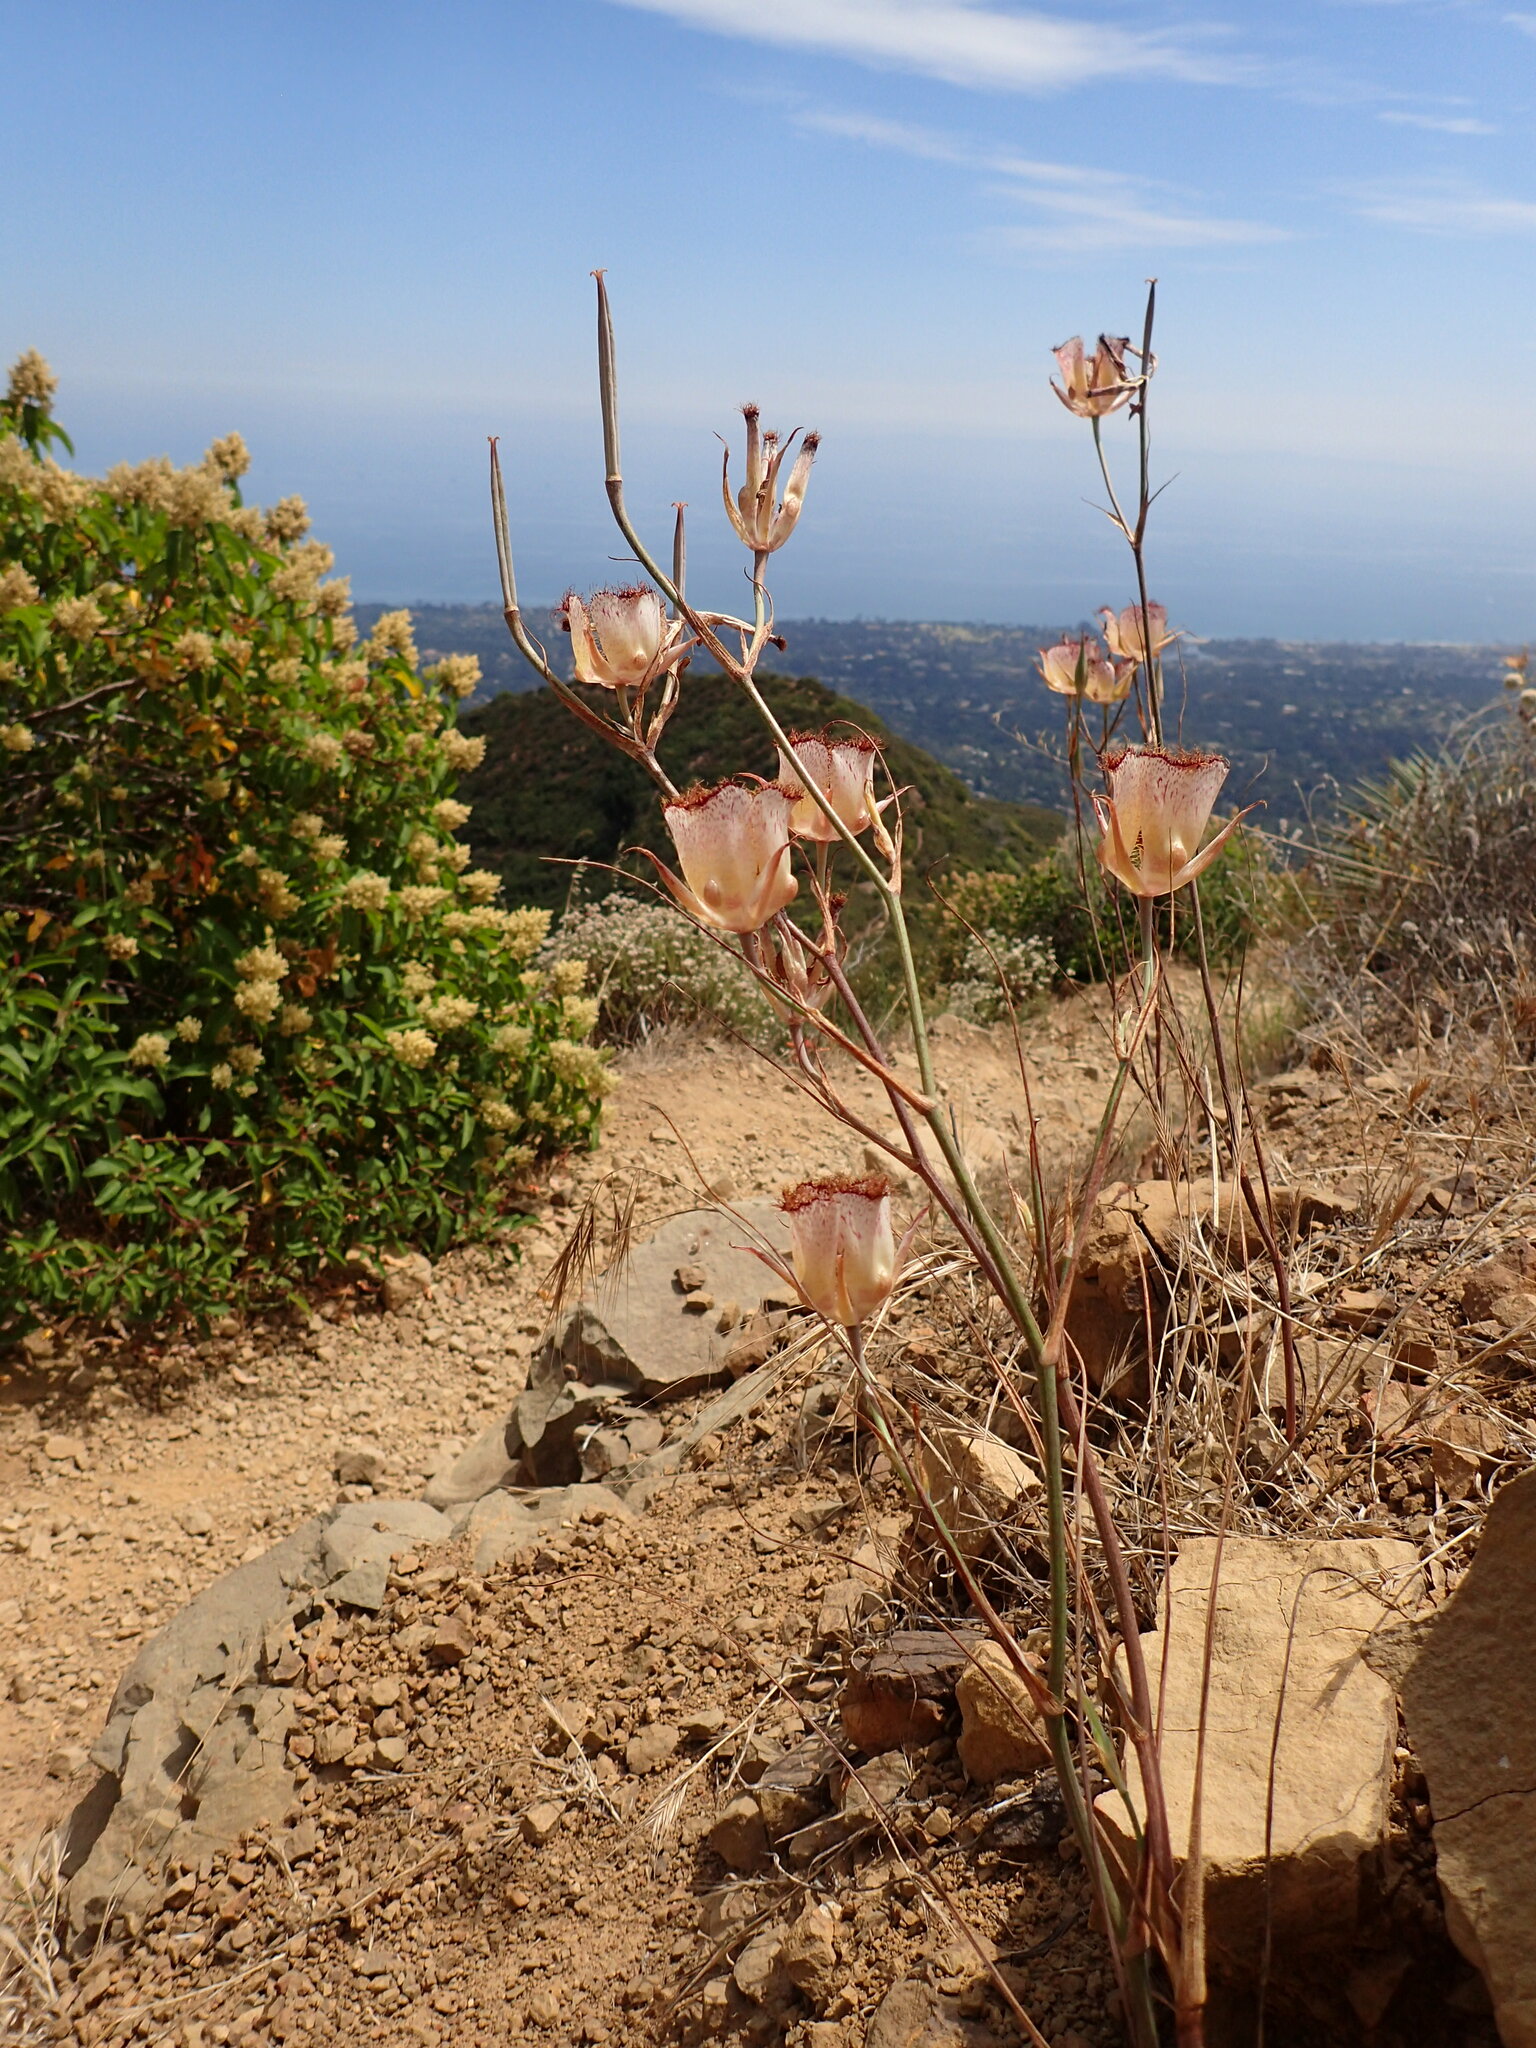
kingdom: Plantae
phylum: Tracheophyta
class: Liliopsida
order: Liliales
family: Liliaceae
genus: Calochortus
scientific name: Calochortus fimbriatus
